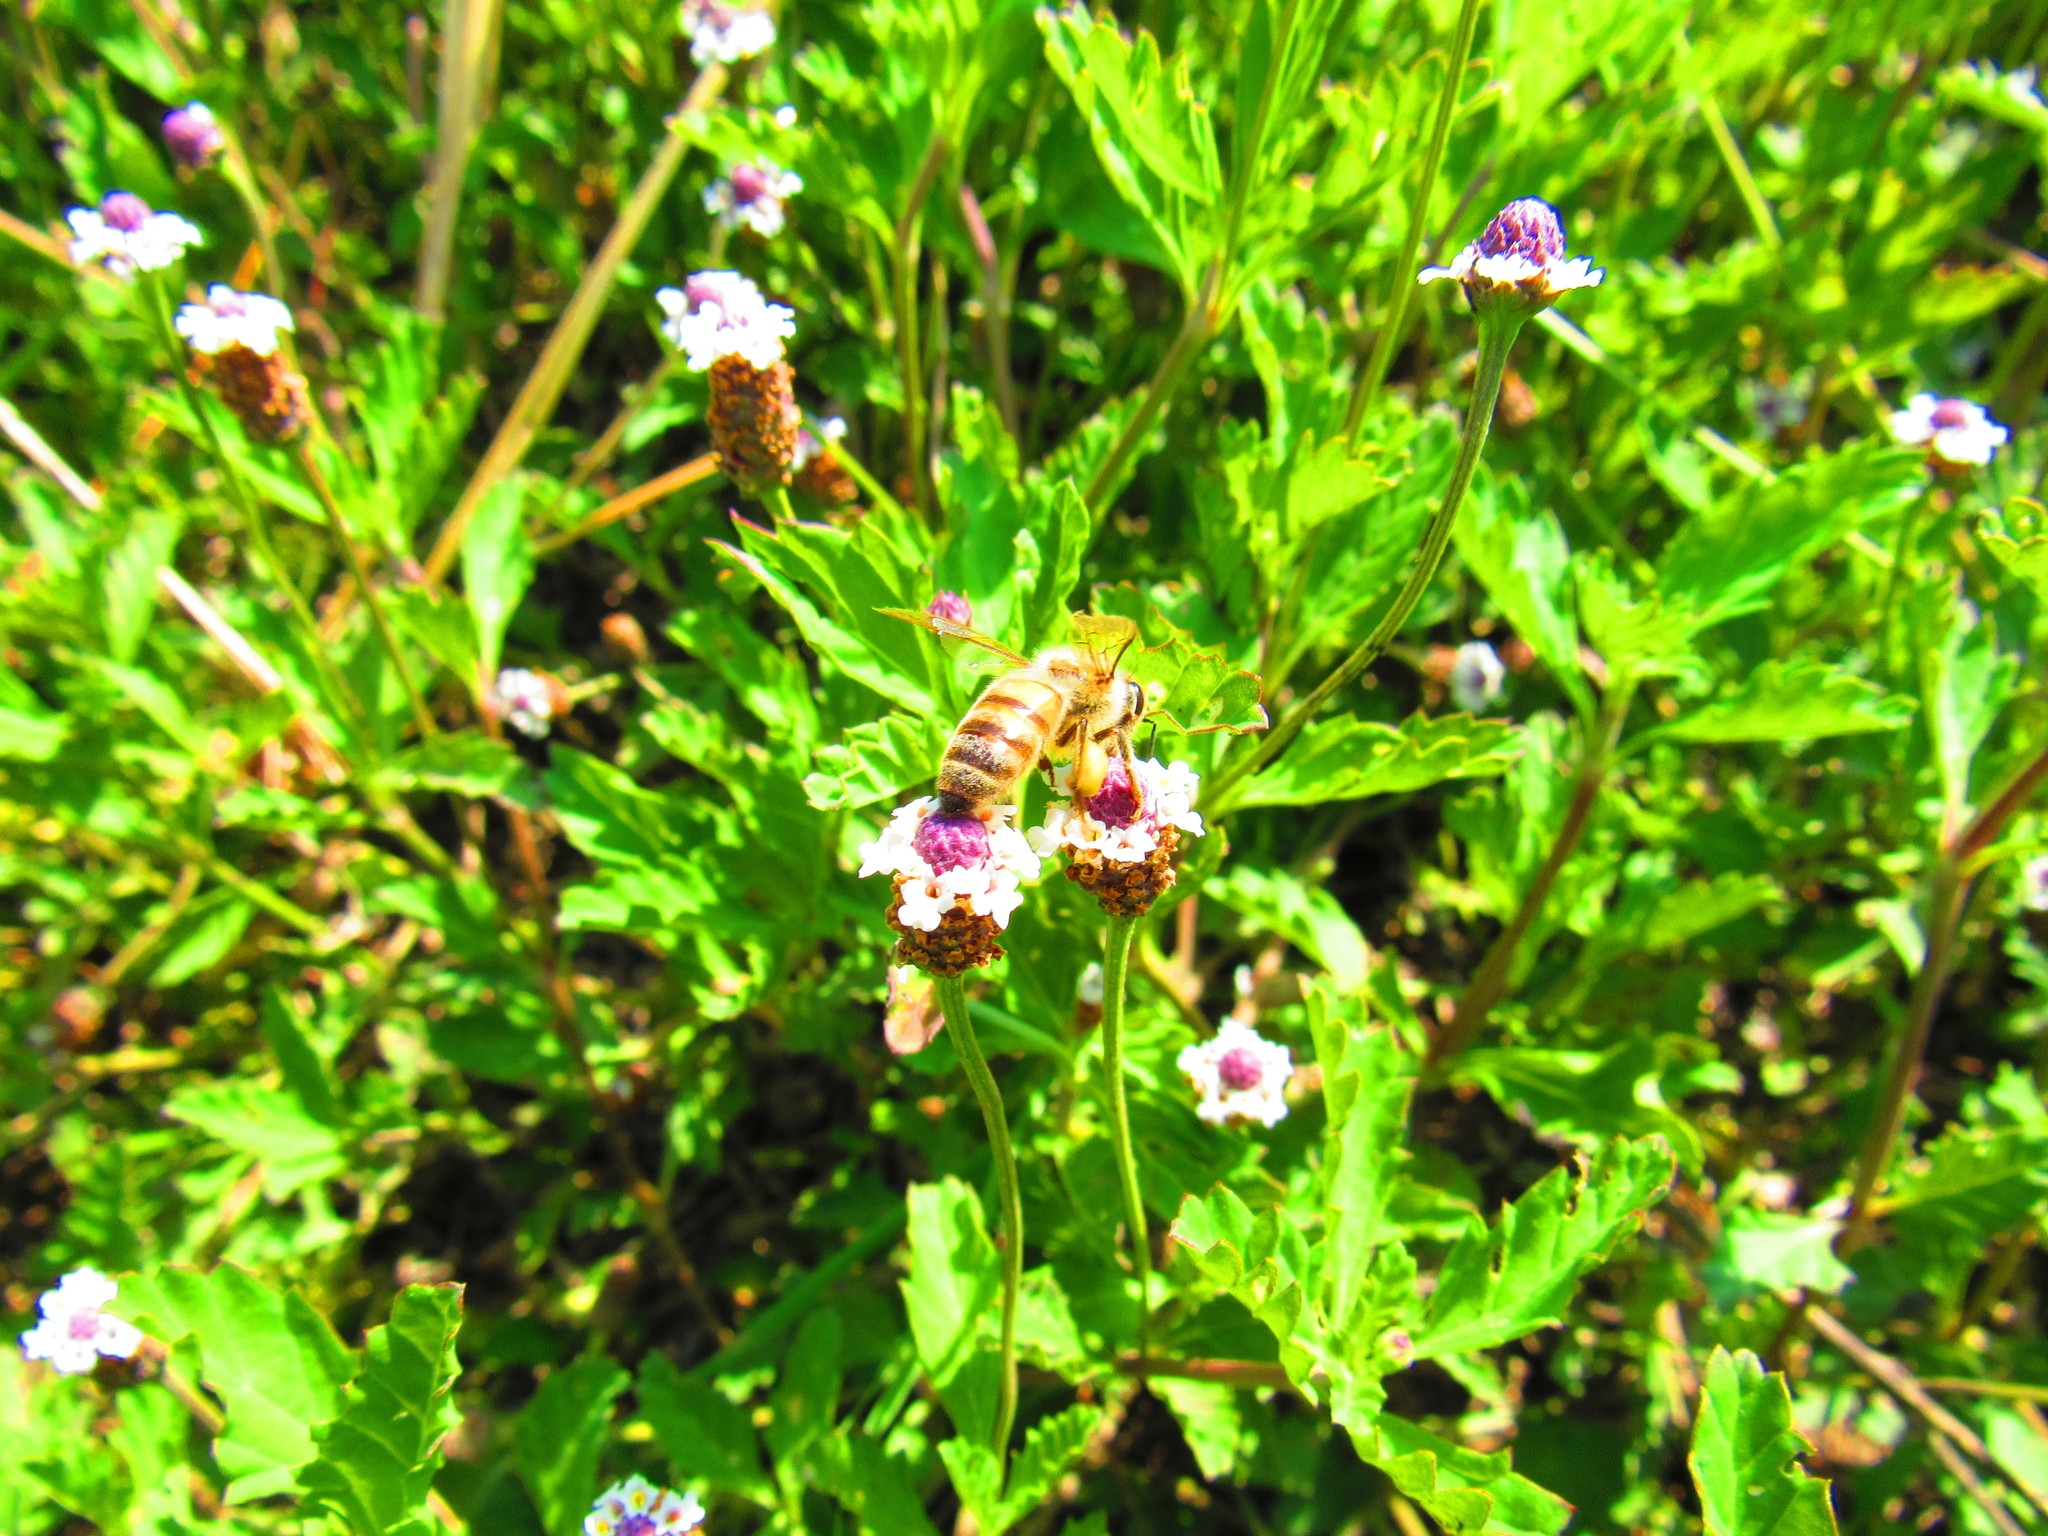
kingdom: Animalia
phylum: Arthropoda
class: Insecta
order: Hymenoptera
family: Apidae
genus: Apis
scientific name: Apis mellifera
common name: Honey bee
